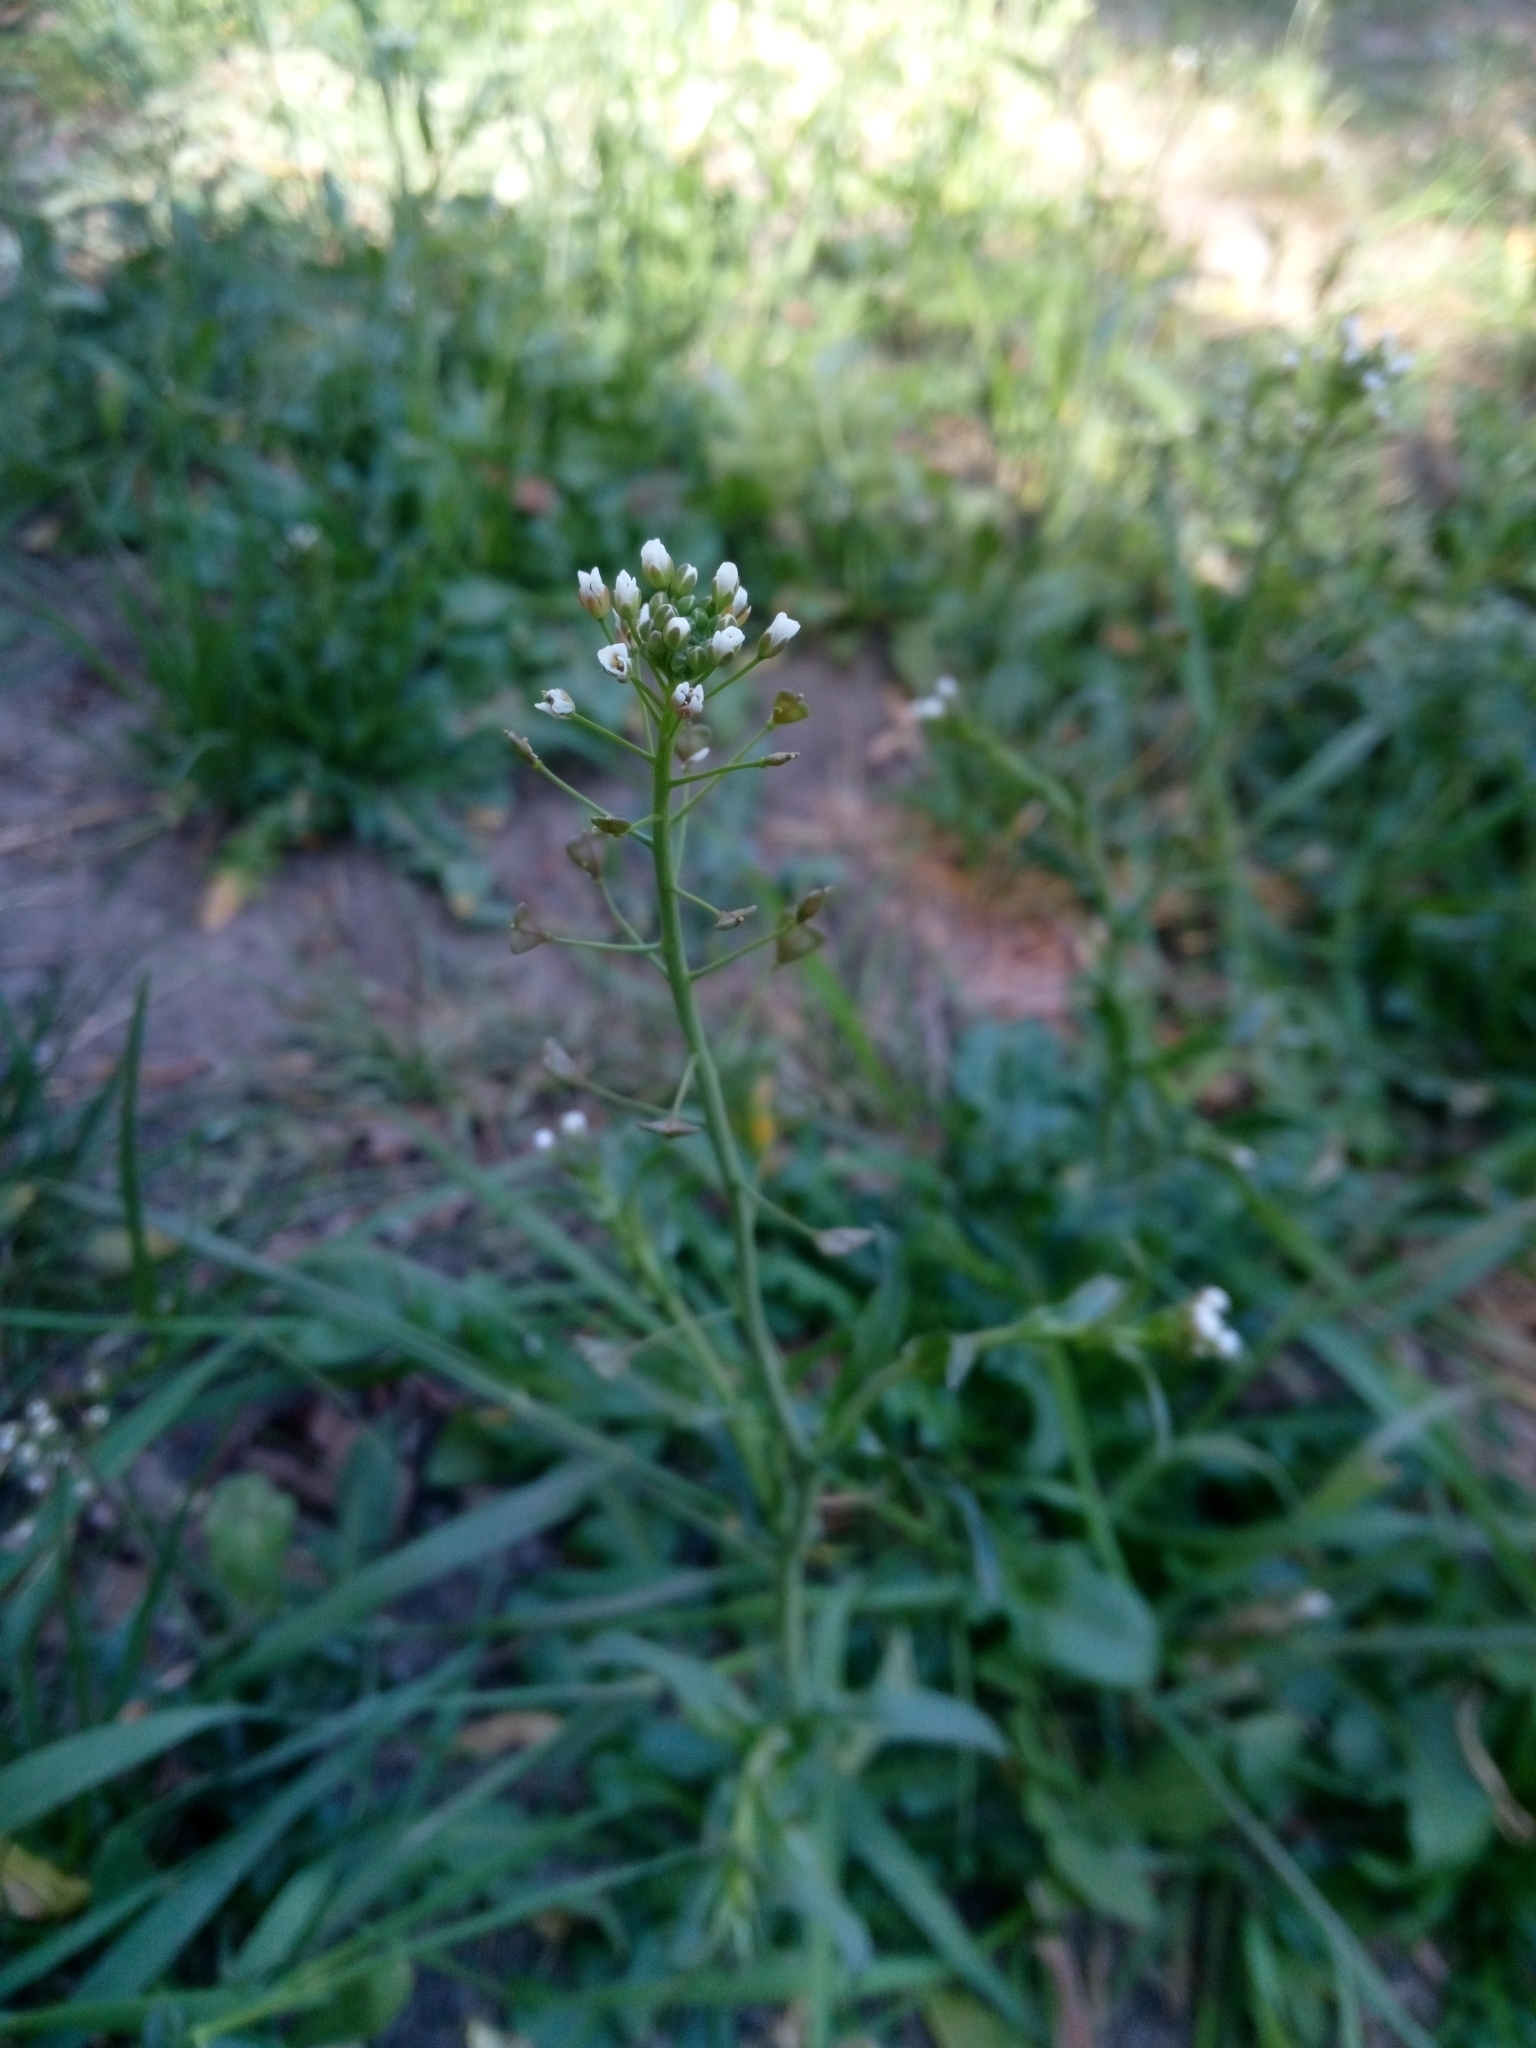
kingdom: Plantae
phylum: Tracheophyta
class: Magnoliopsida
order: Brassicales
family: Brassicaceae
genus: Capsella
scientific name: Capsella bursa-pastoris
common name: Shepherd's purse
